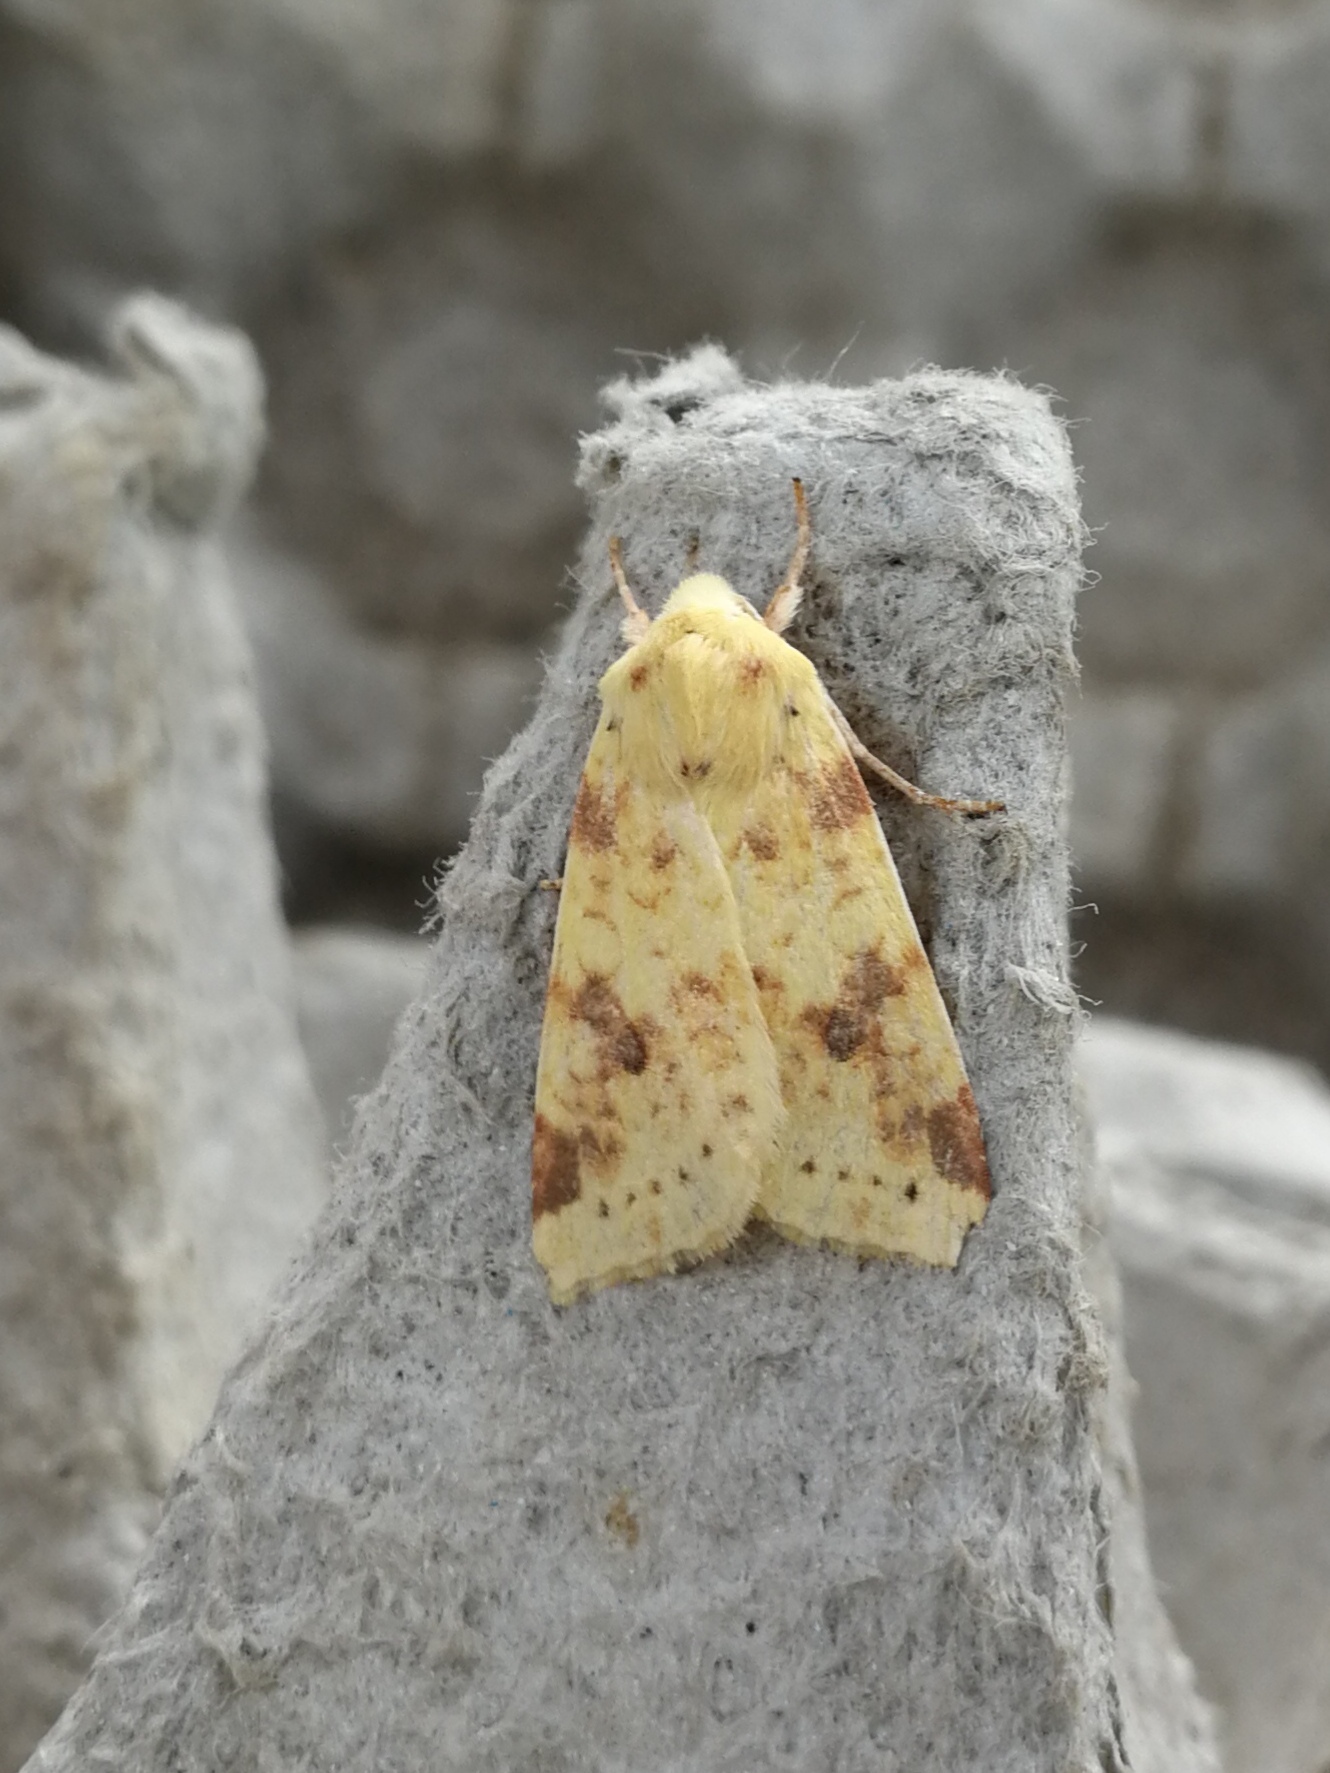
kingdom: Animalia
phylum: Arthropoda
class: Insecta
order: Lepidoptera
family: Noctuidae
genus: Xanthia
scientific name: Xanthia icteritia
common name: The sallow
